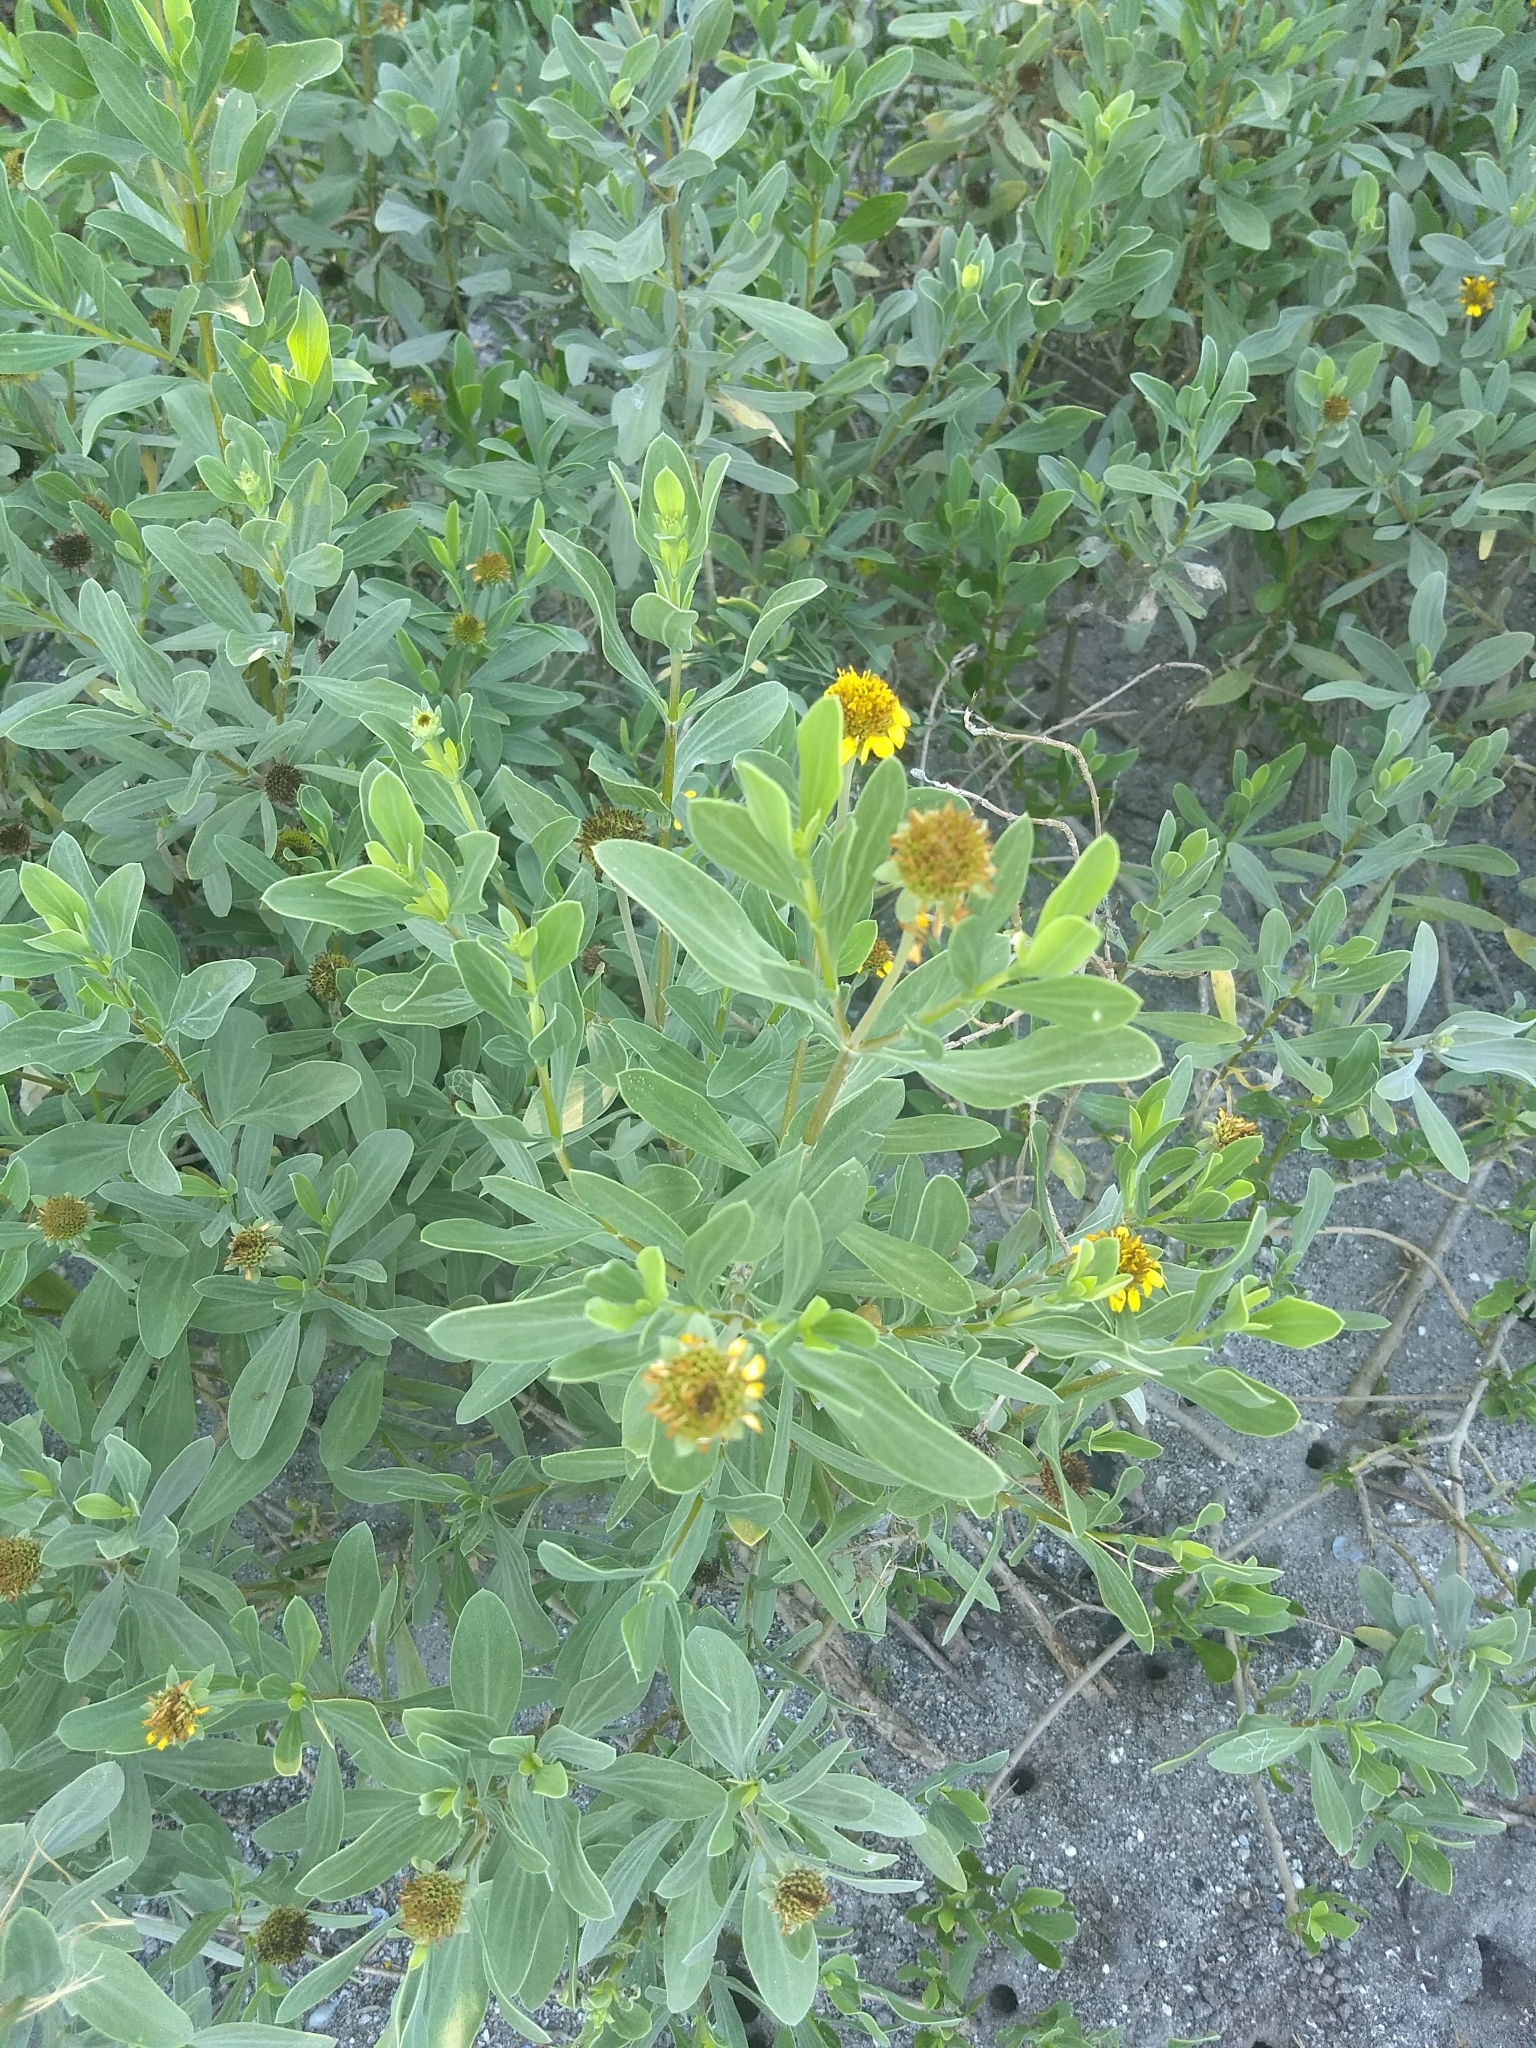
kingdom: Plantae
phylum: Tracheophyta
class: Magnoliopsida
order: Asterales
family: Asteraceae
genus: Borrichia
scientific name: Borrichia frutescens
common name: Sea oxeye
